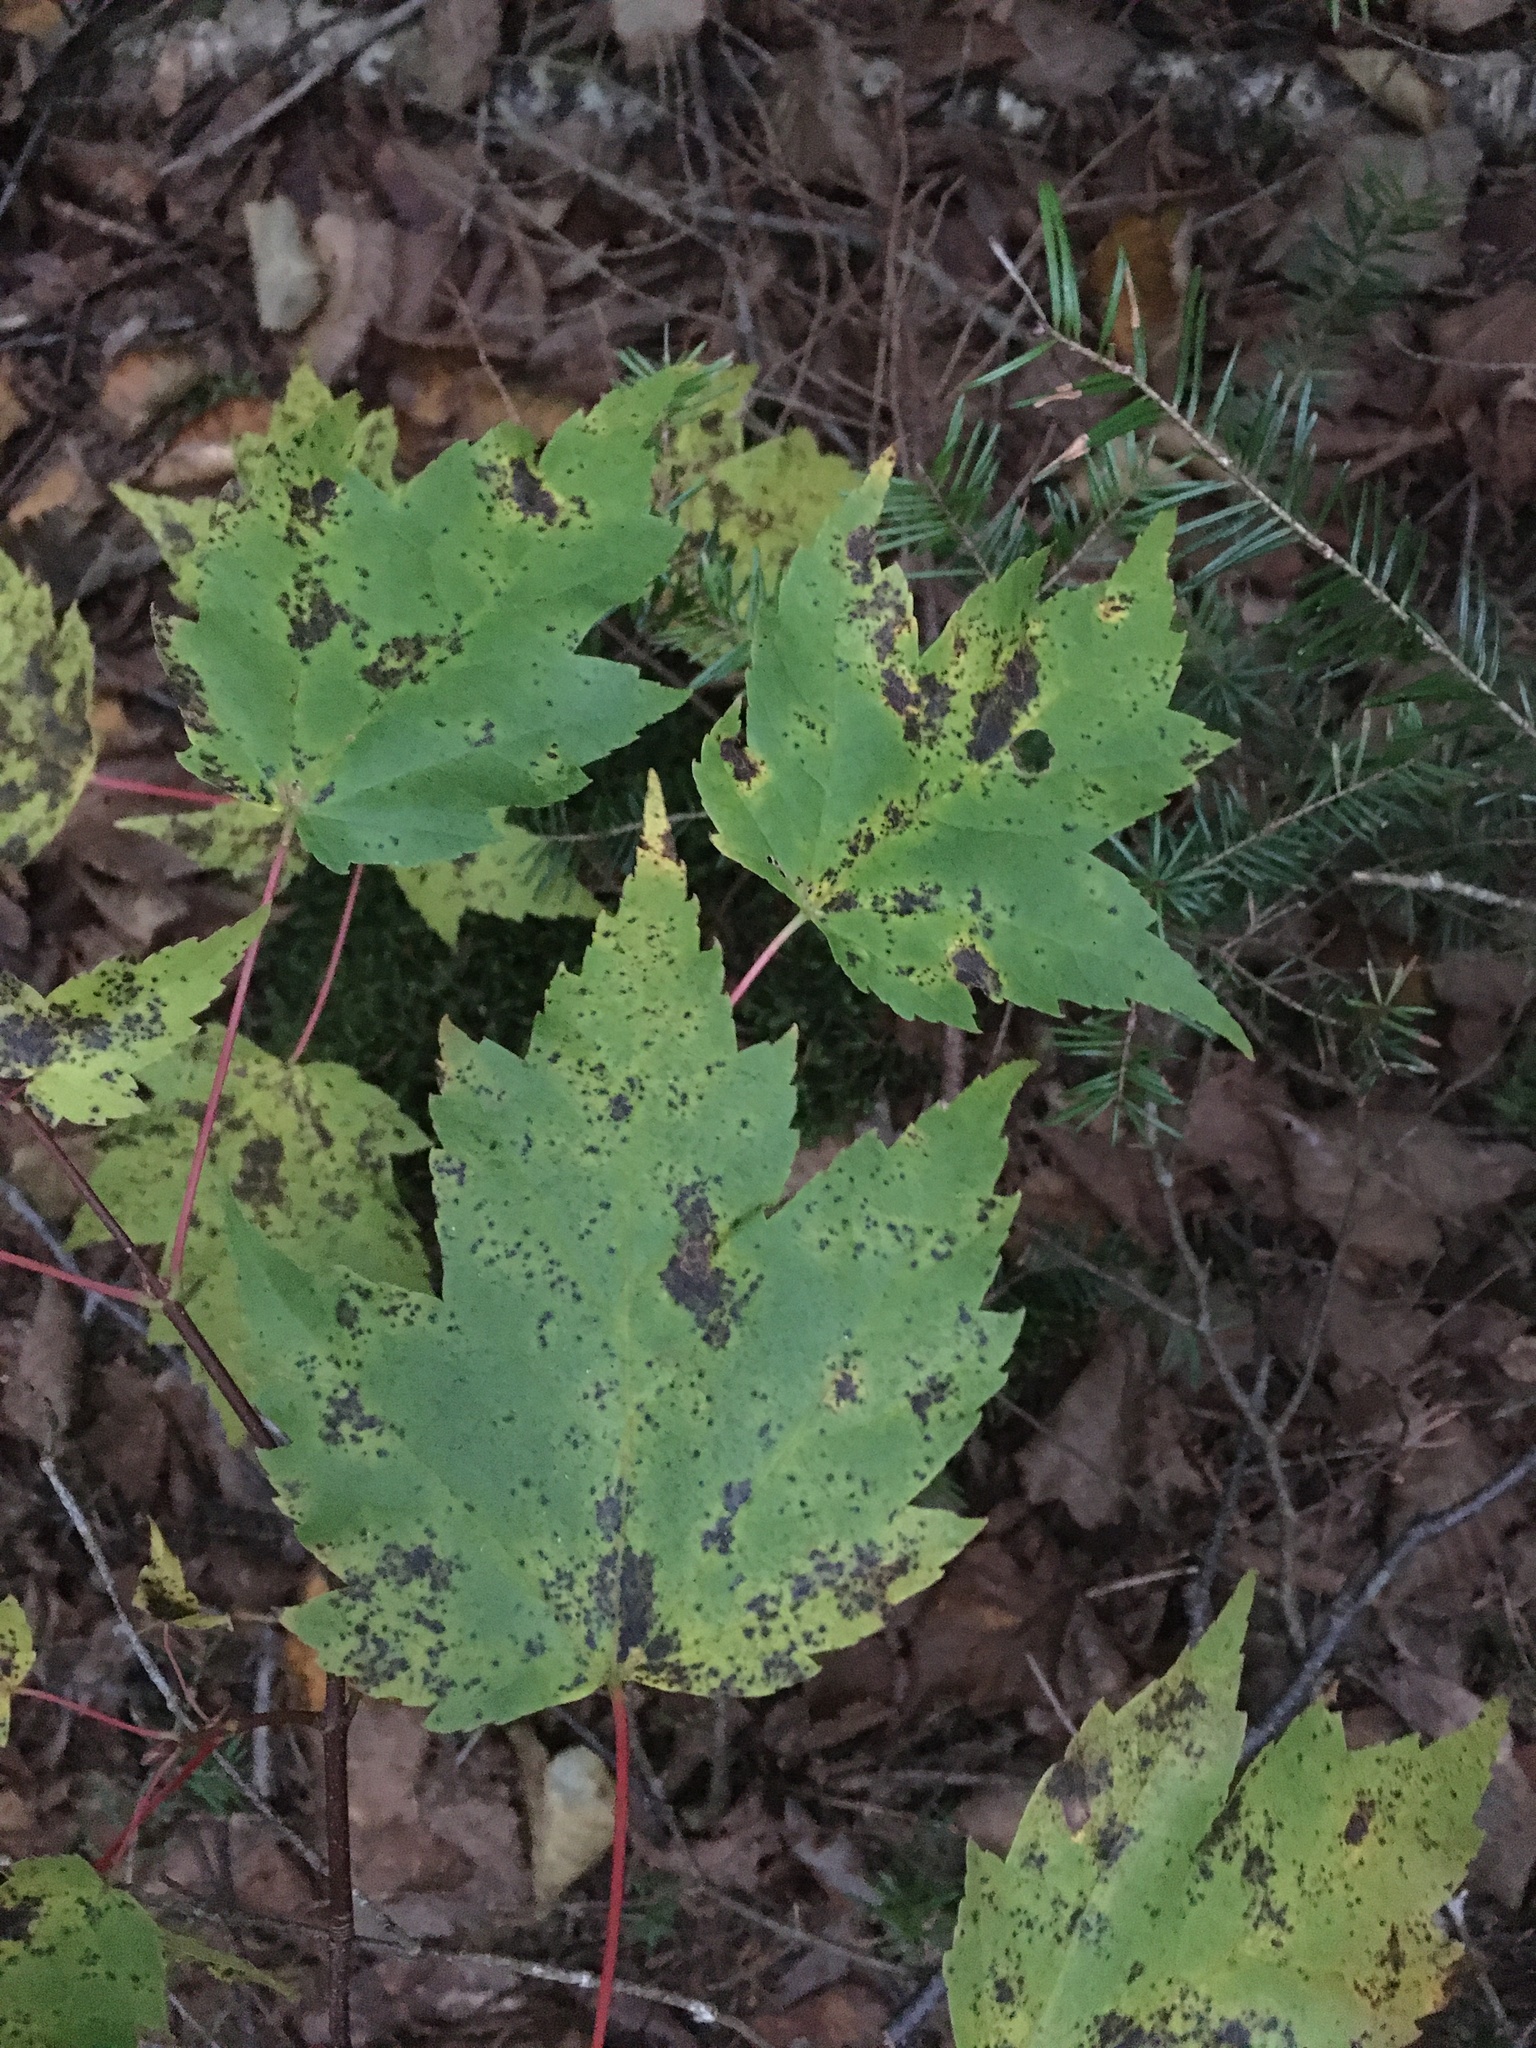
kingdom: Plantae
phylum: Tracheophyta
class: Magnoliopsida
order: Sapindales
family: Sapindaceae
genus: Acer
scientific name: Acer rubrum
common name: Red maple
